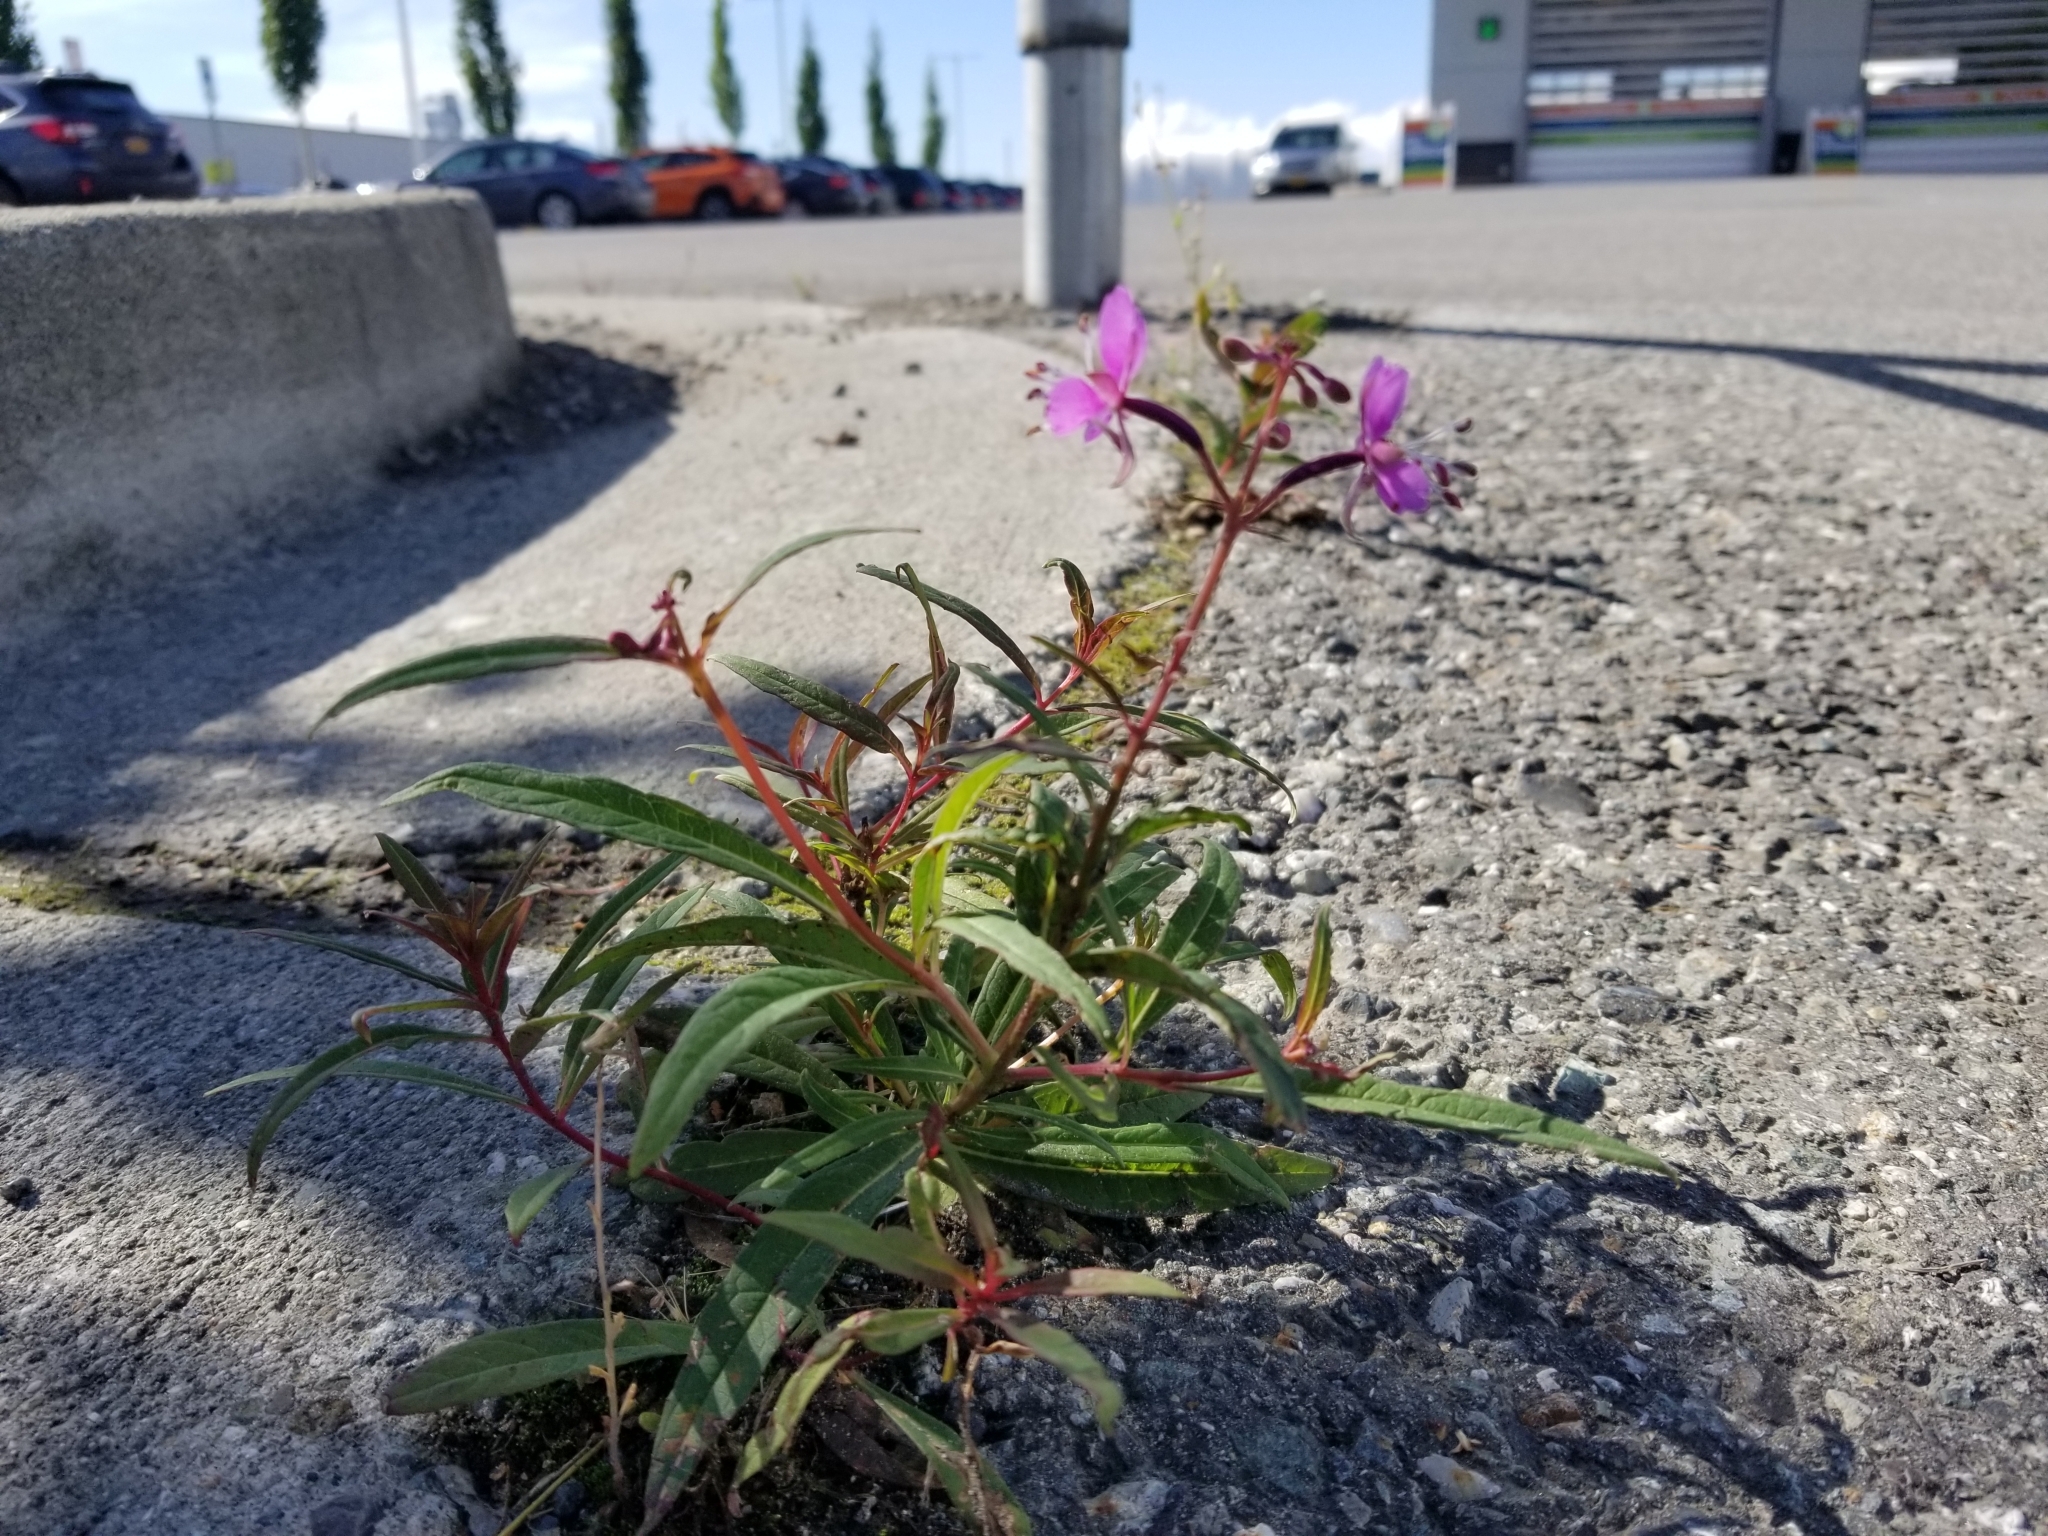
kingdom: Plantae
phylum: Tracheophyta
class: Magnoliopsida
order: Myrtales
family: Onagraceae
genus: Chamaenerion
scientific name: Chamaenerion angustifolium
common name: Fireweed
